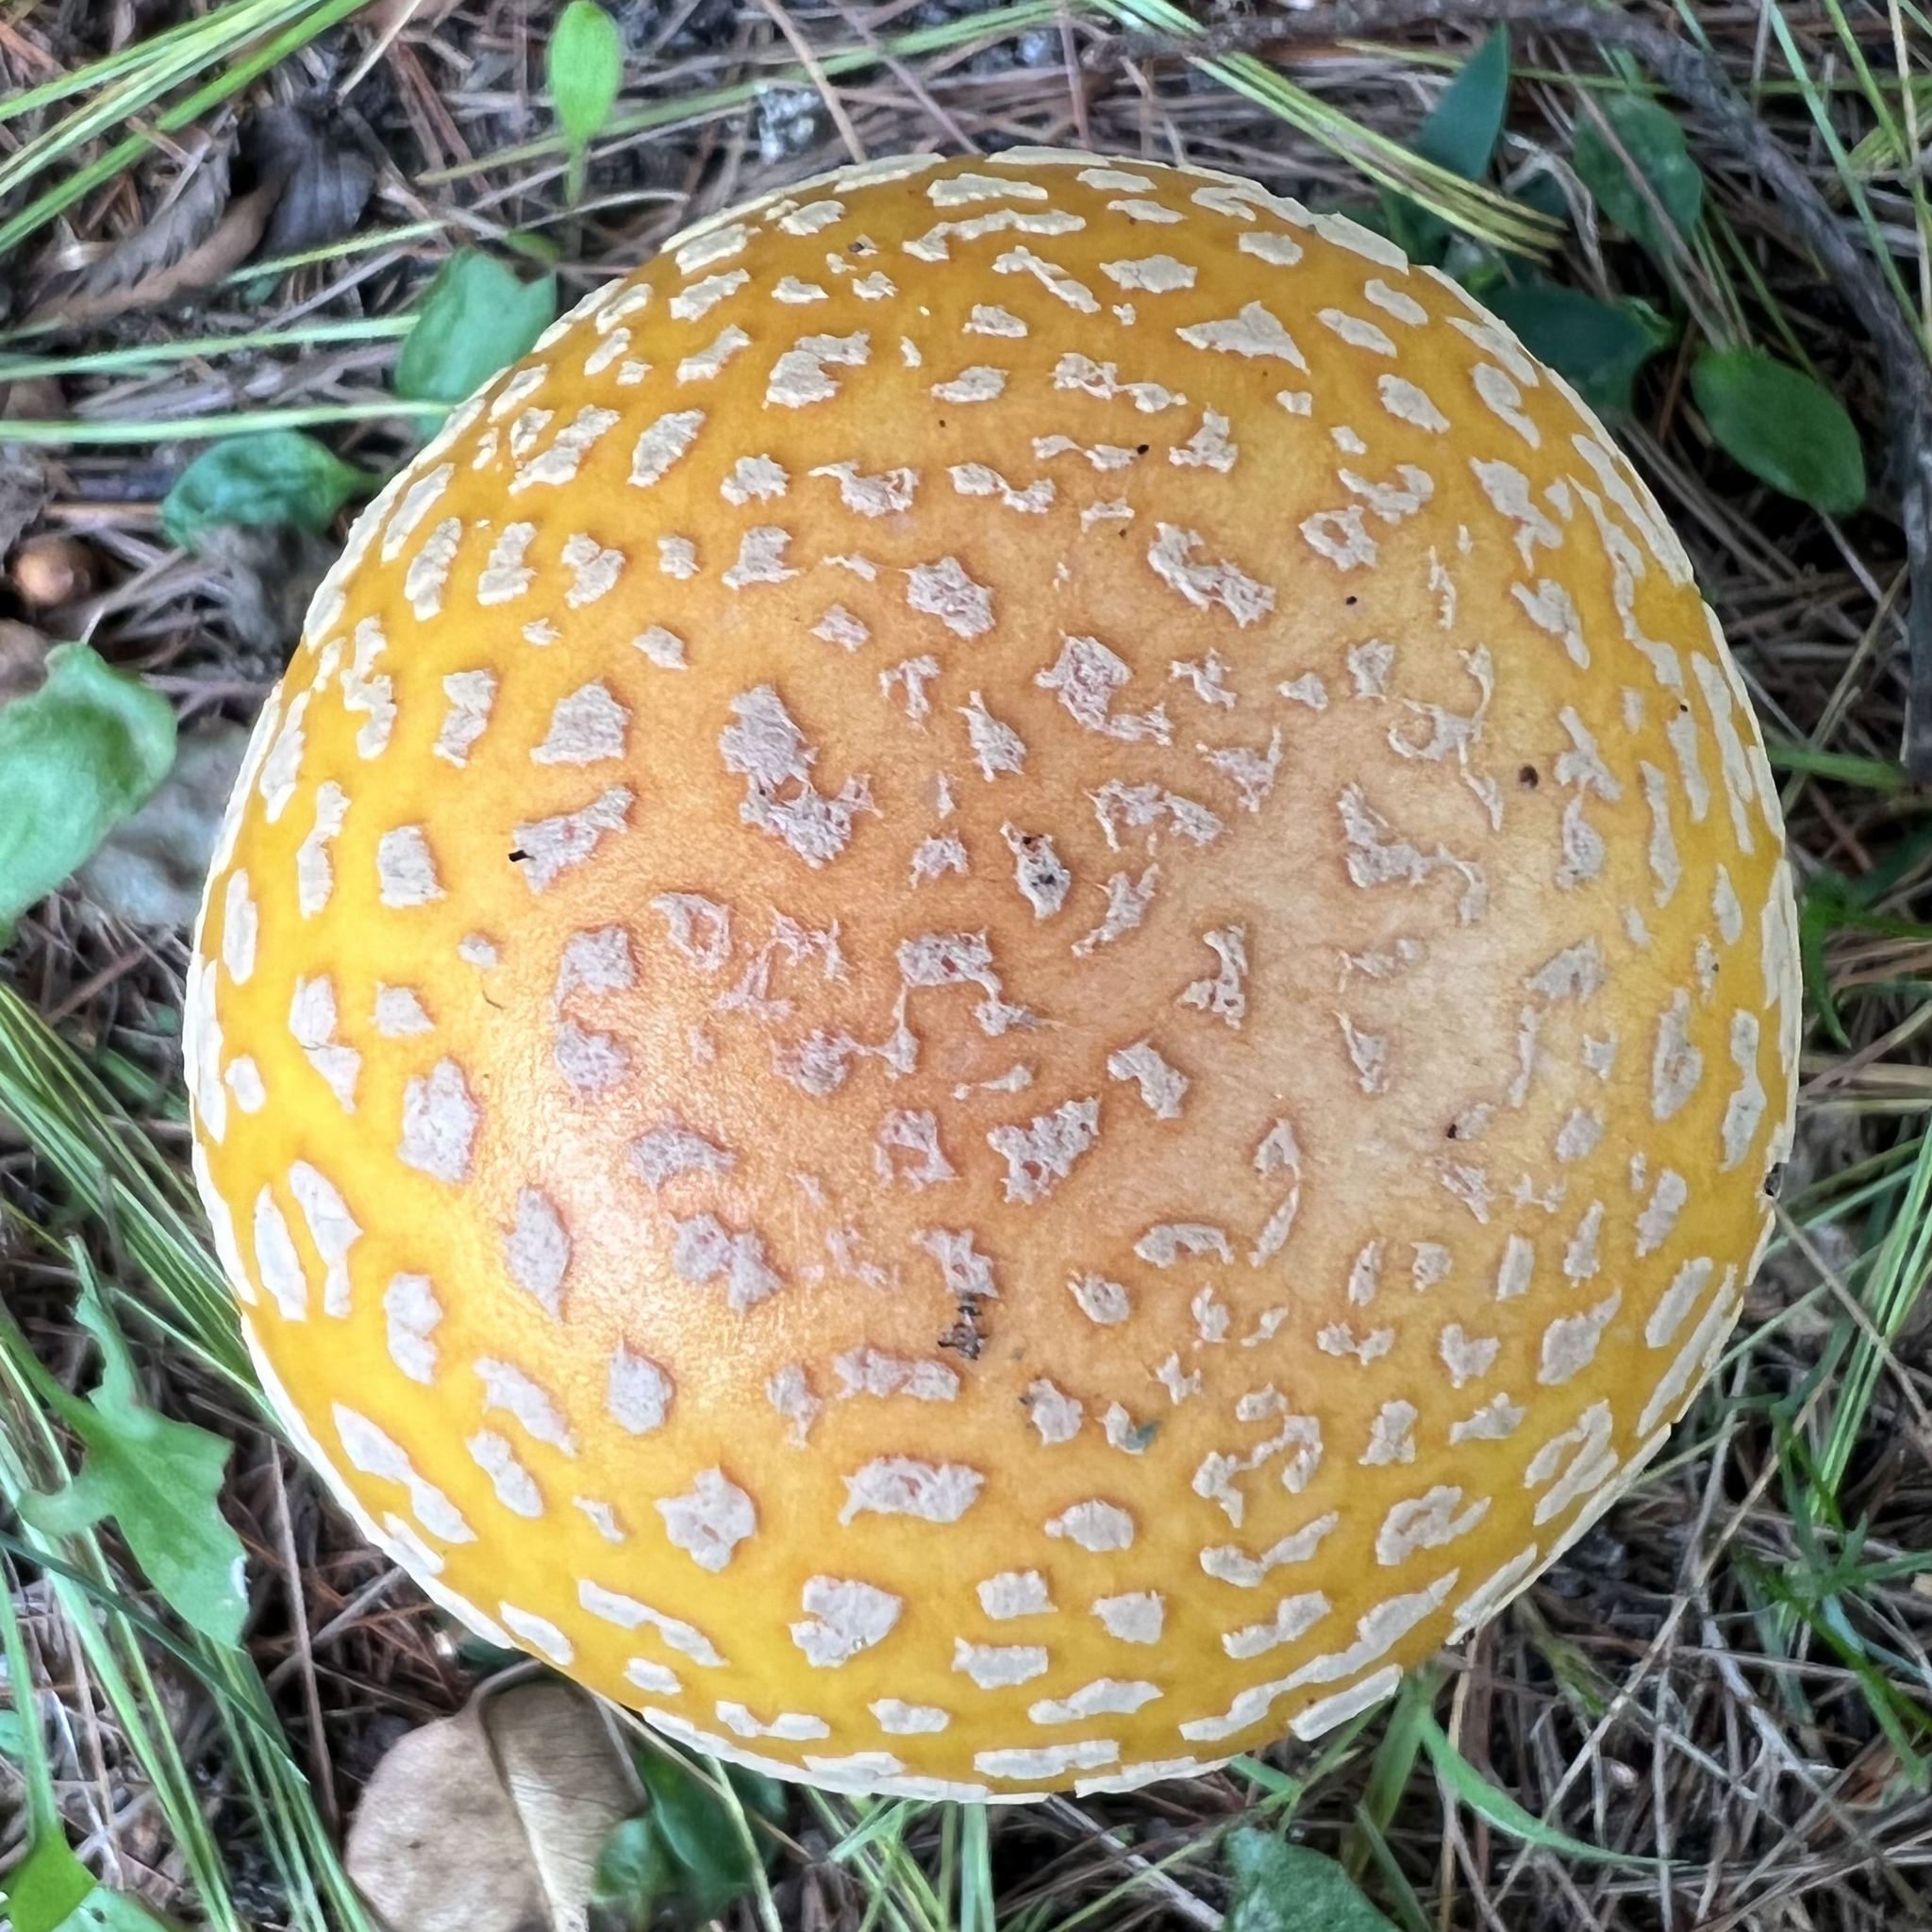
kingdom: Fungi
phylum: Basidiomycota
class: Agaricomycetes
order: Agaricales
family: Amanitaceae
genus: Amanita
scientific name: Amanita muscaria
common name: Fly agaric
